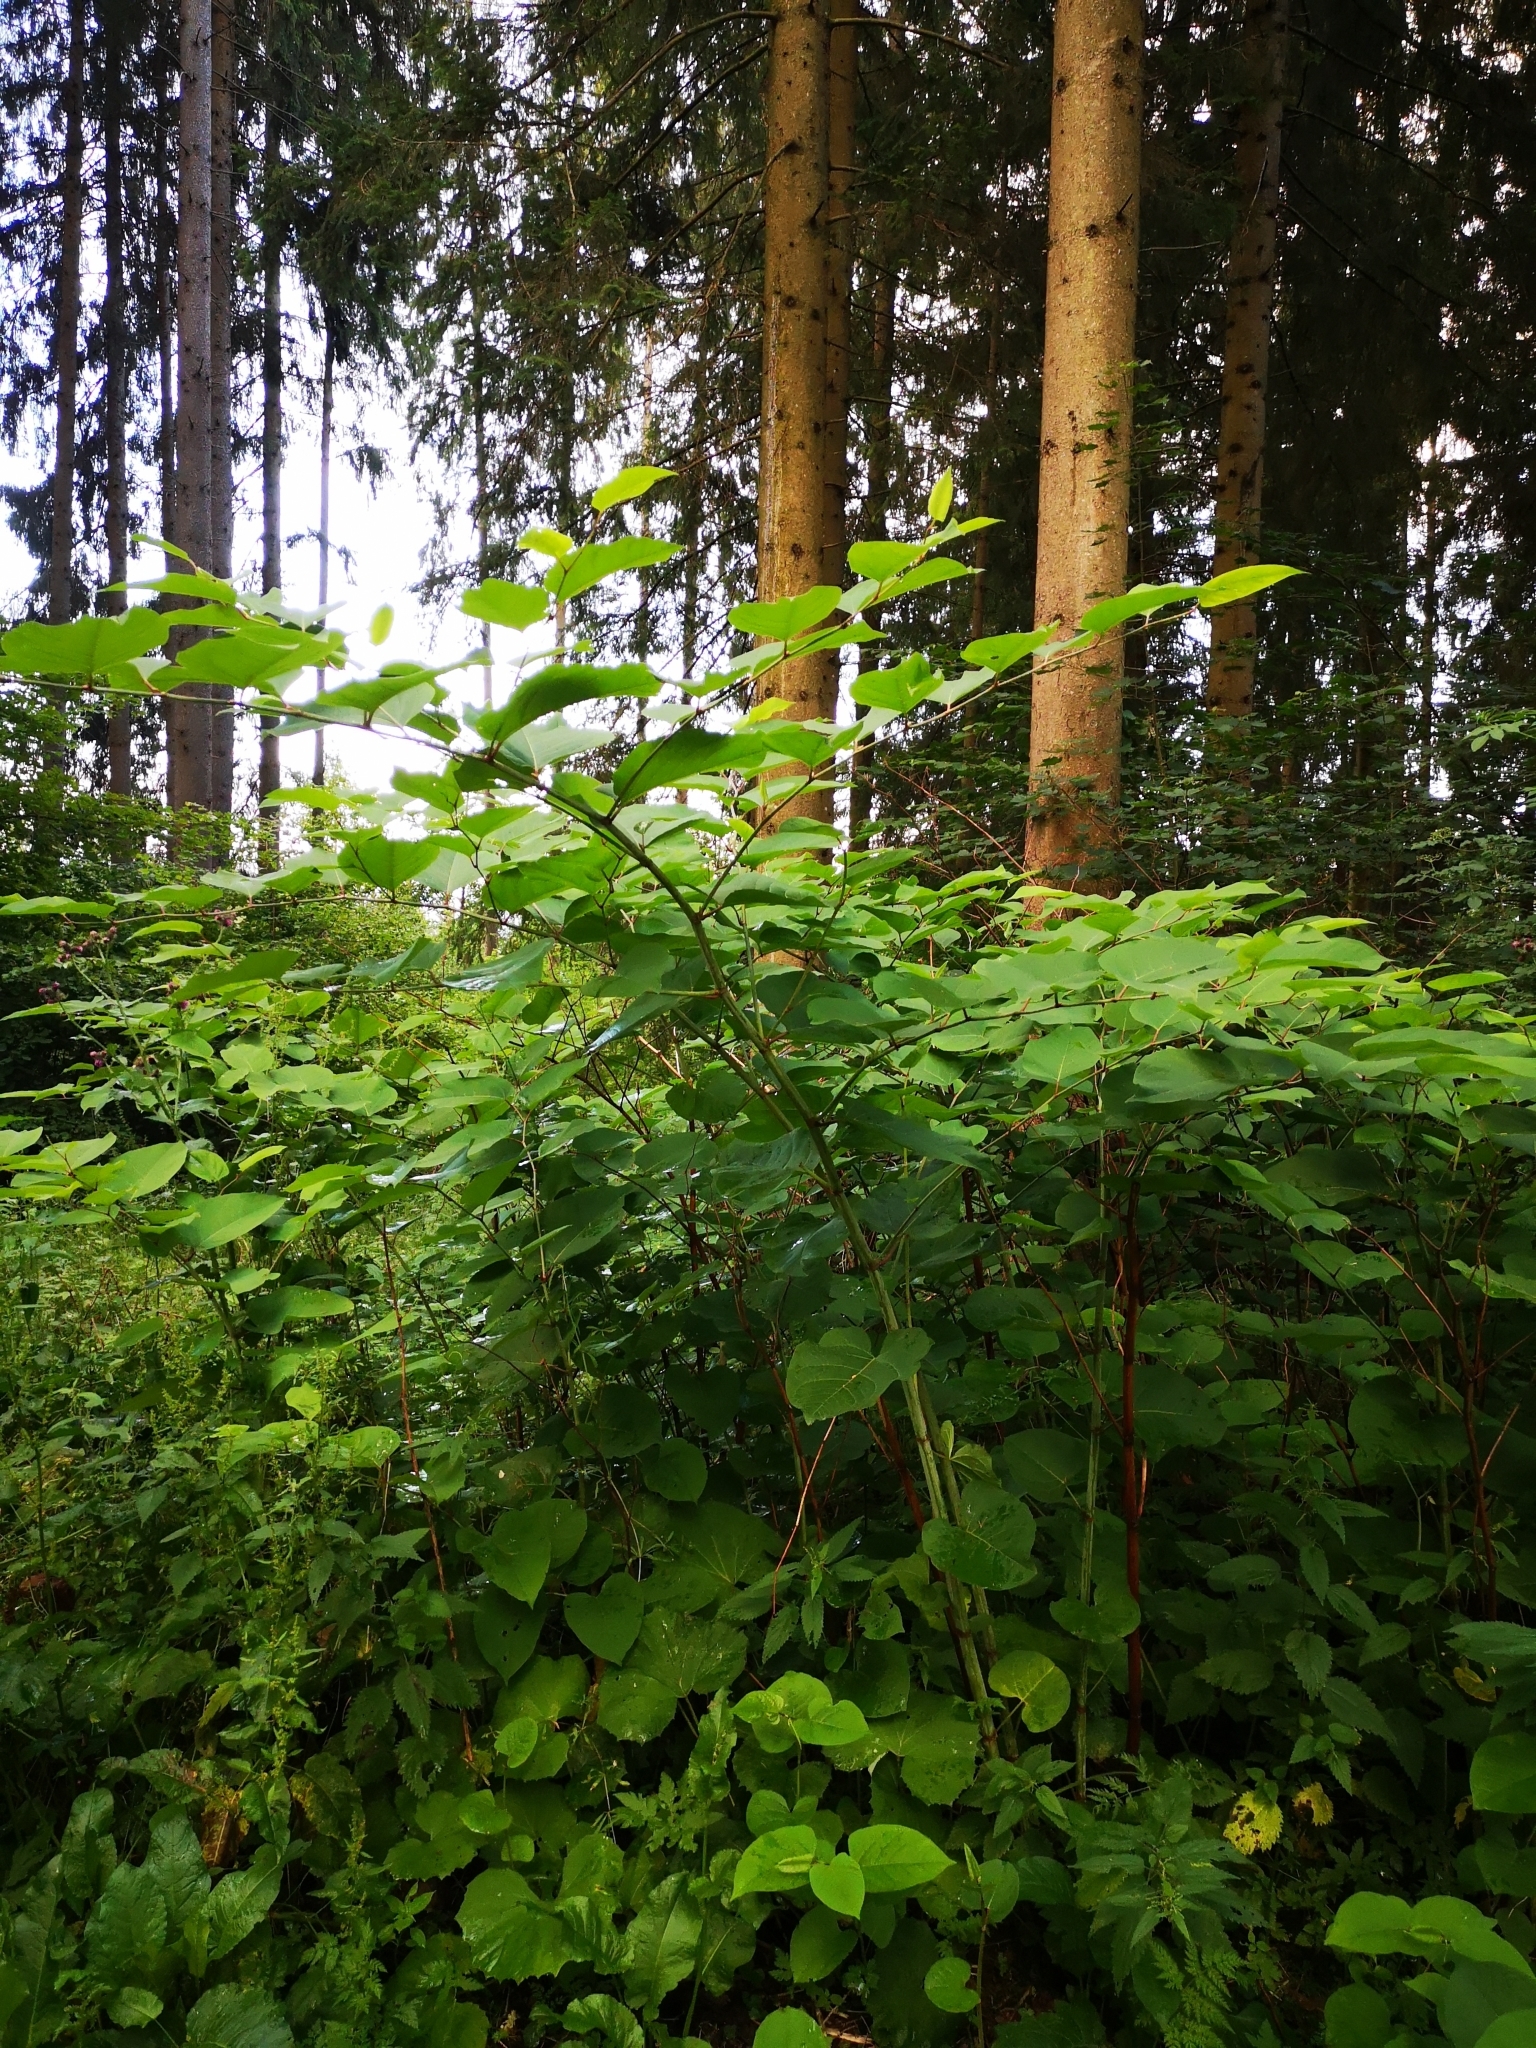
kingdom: Plantae
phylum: Tracheophyta
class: Magnoliopsida
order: Caryophyllales
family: Polygonaceae
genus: Reynoutria
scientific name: Reynoutria sachalinensis
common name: Giant knotweed
